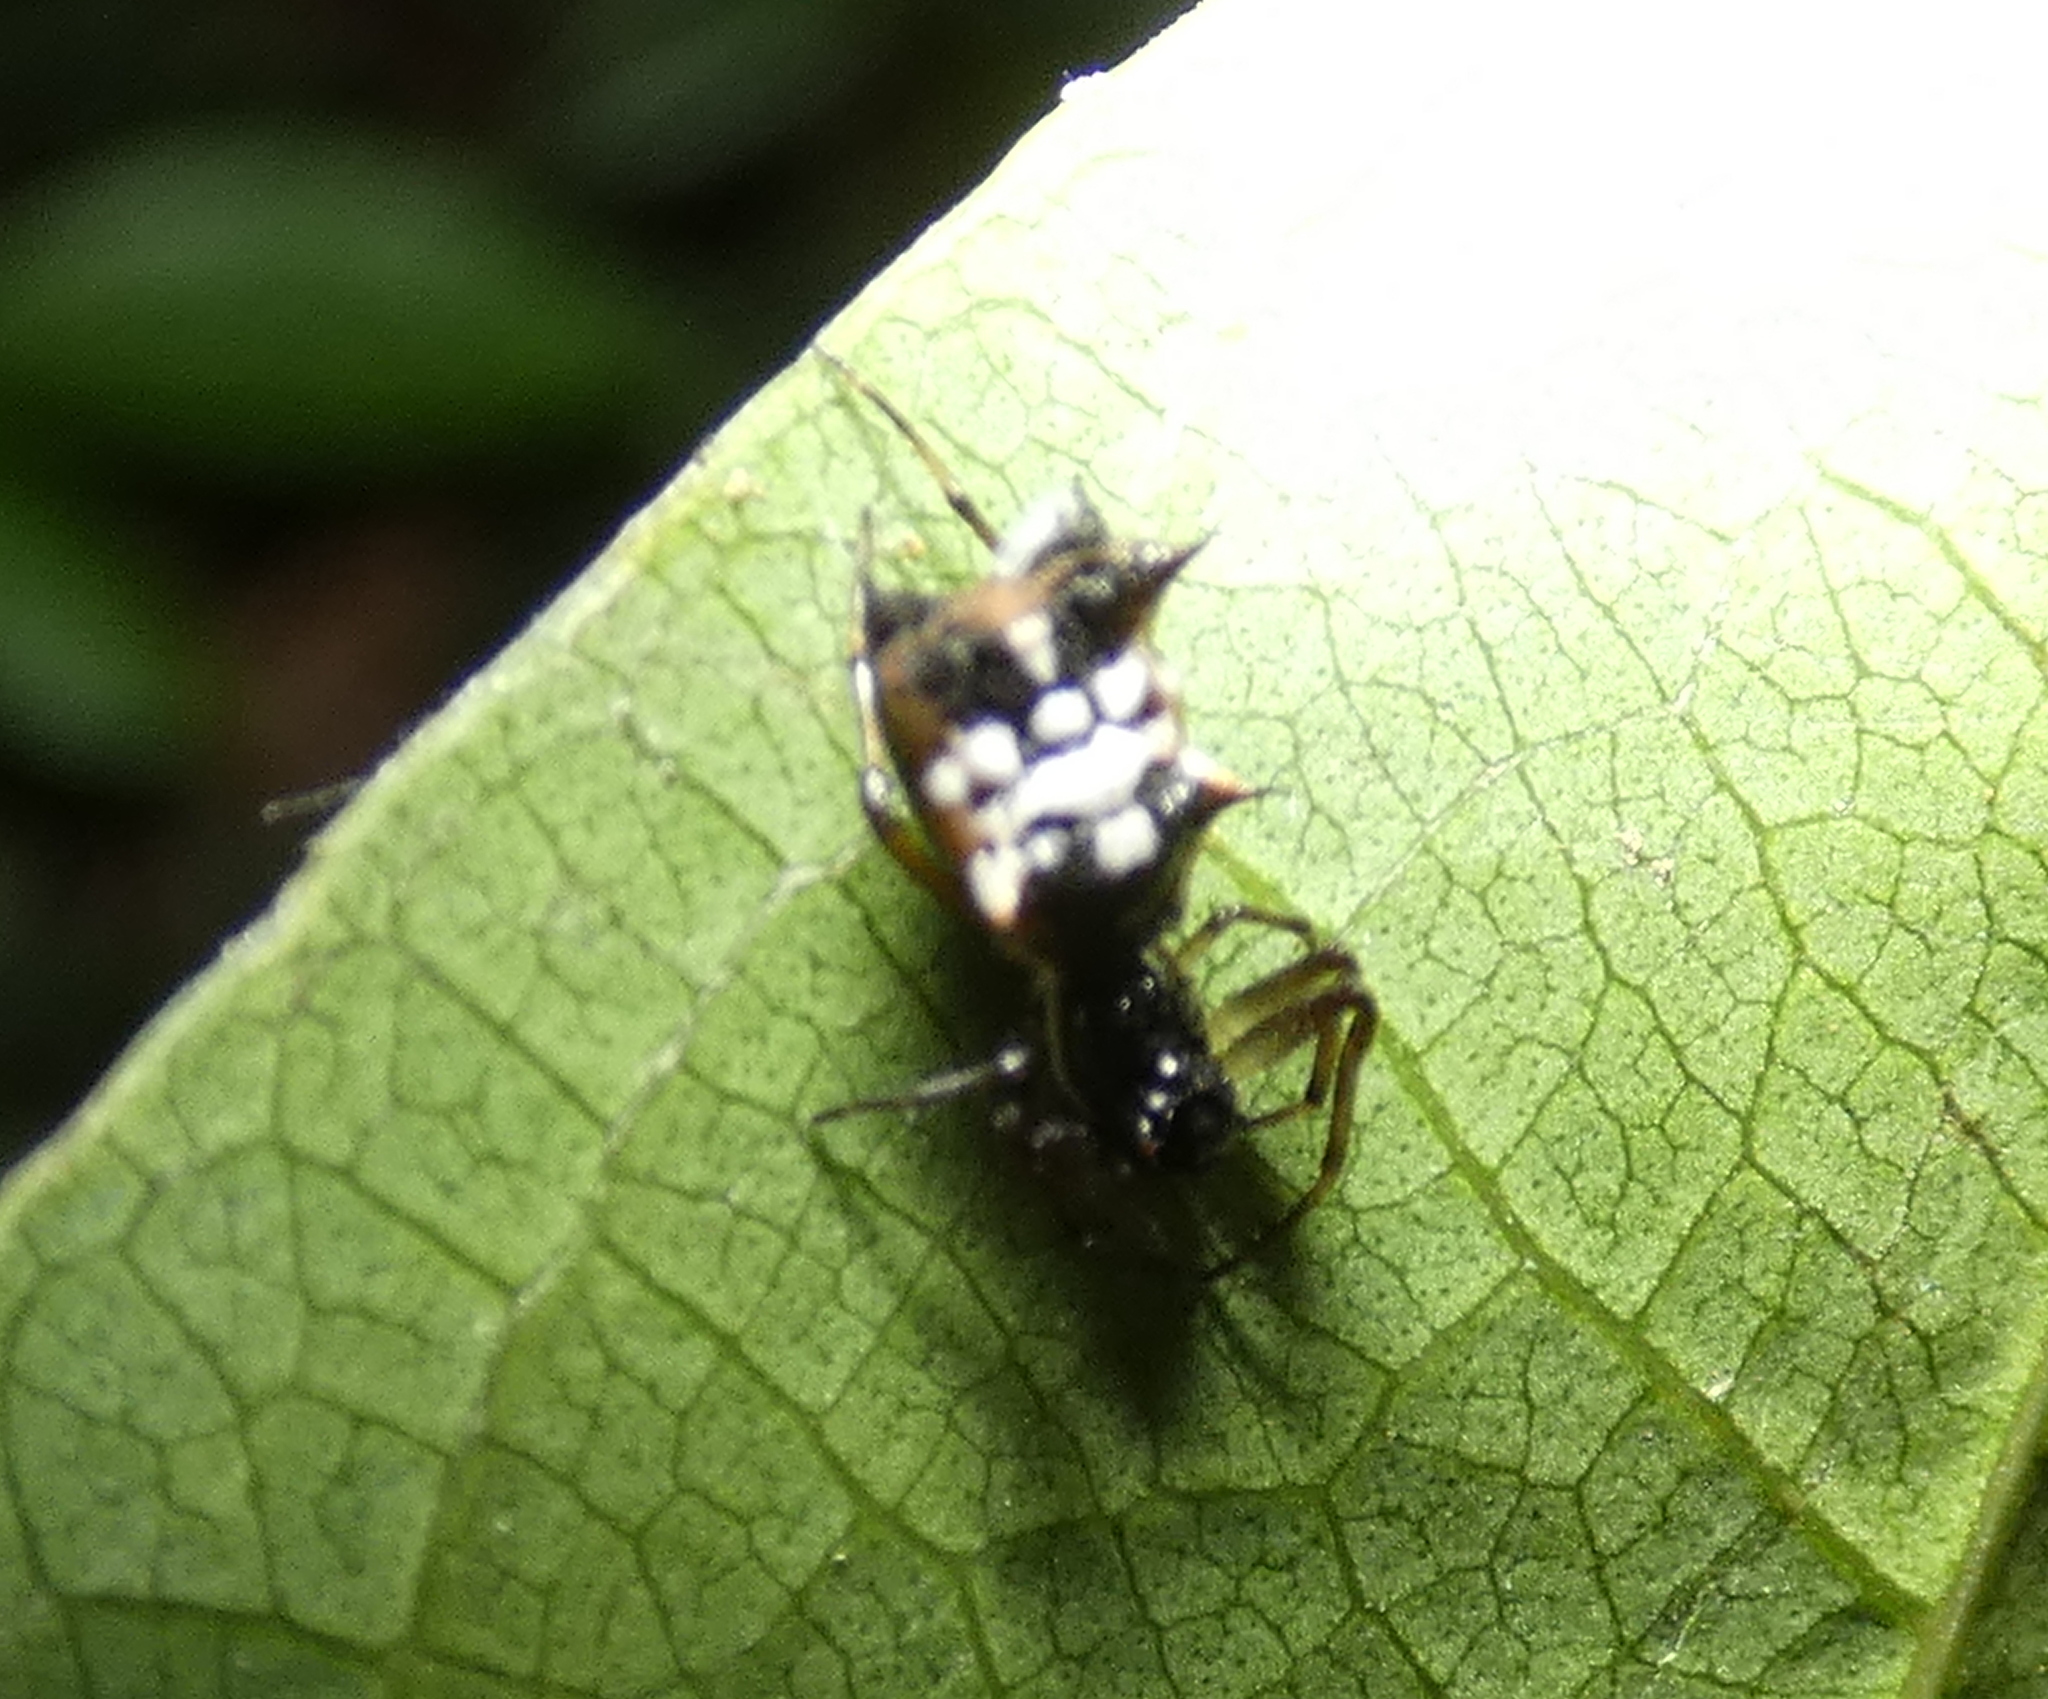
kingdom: Animalia
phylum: Arthropoda
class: Arachnida
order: Araneae
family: Araneidae
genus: Micrathena
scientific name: Micrathena picta
